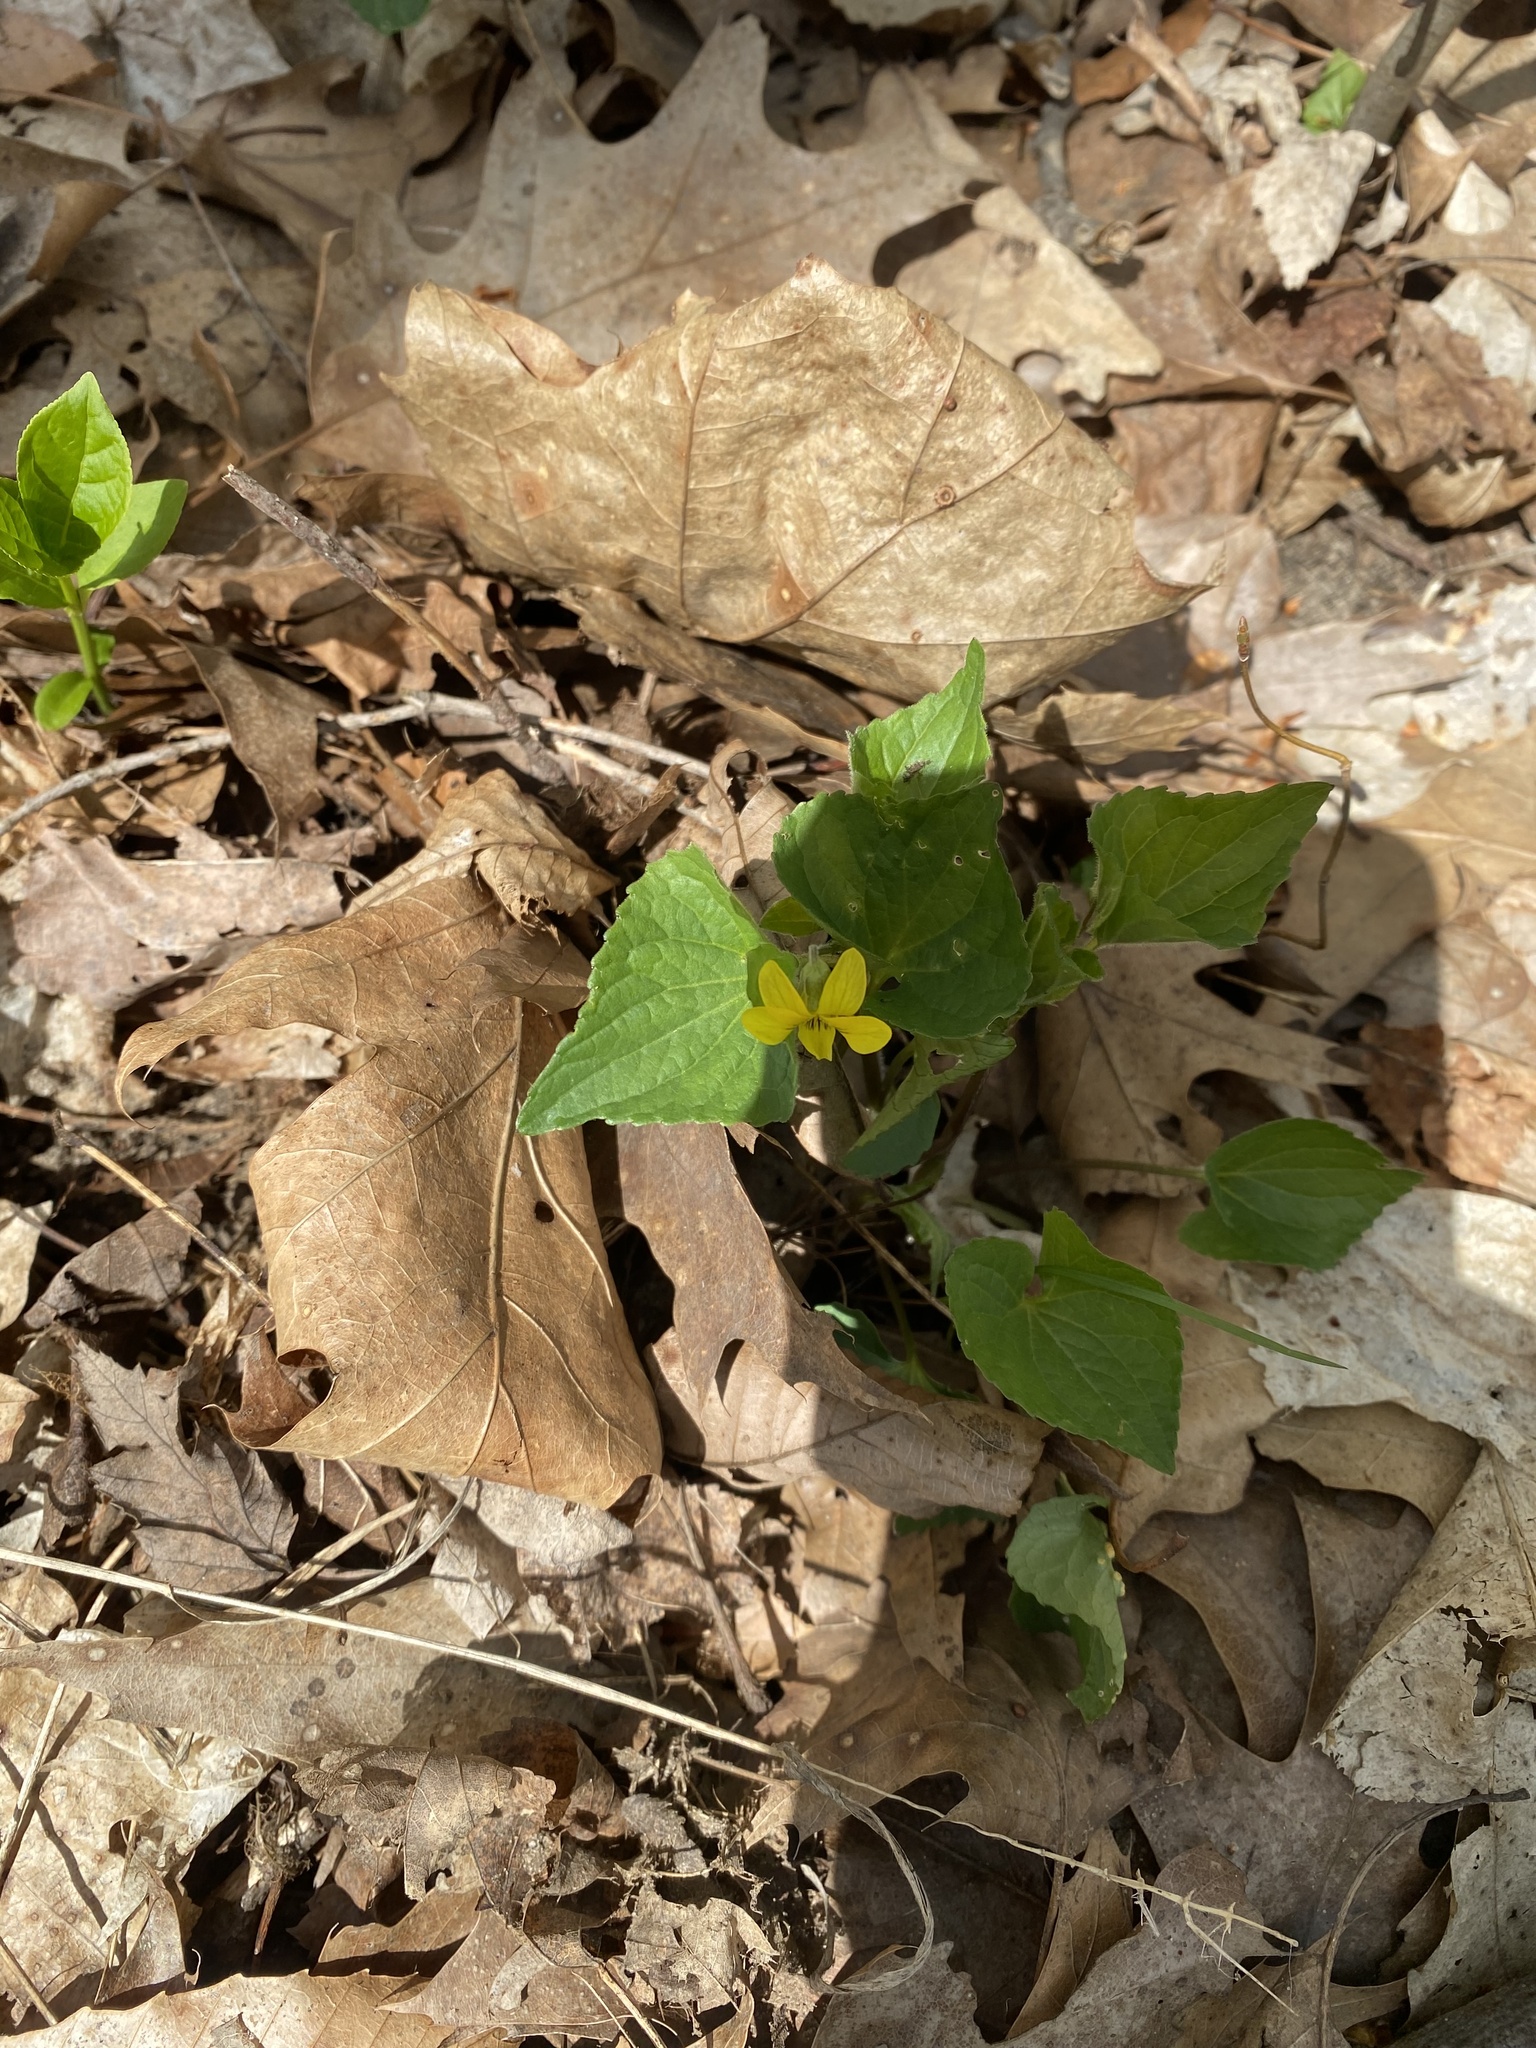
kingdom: Plantae
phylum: Tracheophyta
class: Magnoliopsida
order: Malpighiales
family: Violaceae
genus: Viola
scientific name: Viola eriocarpa
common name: Smooth yellow violet
